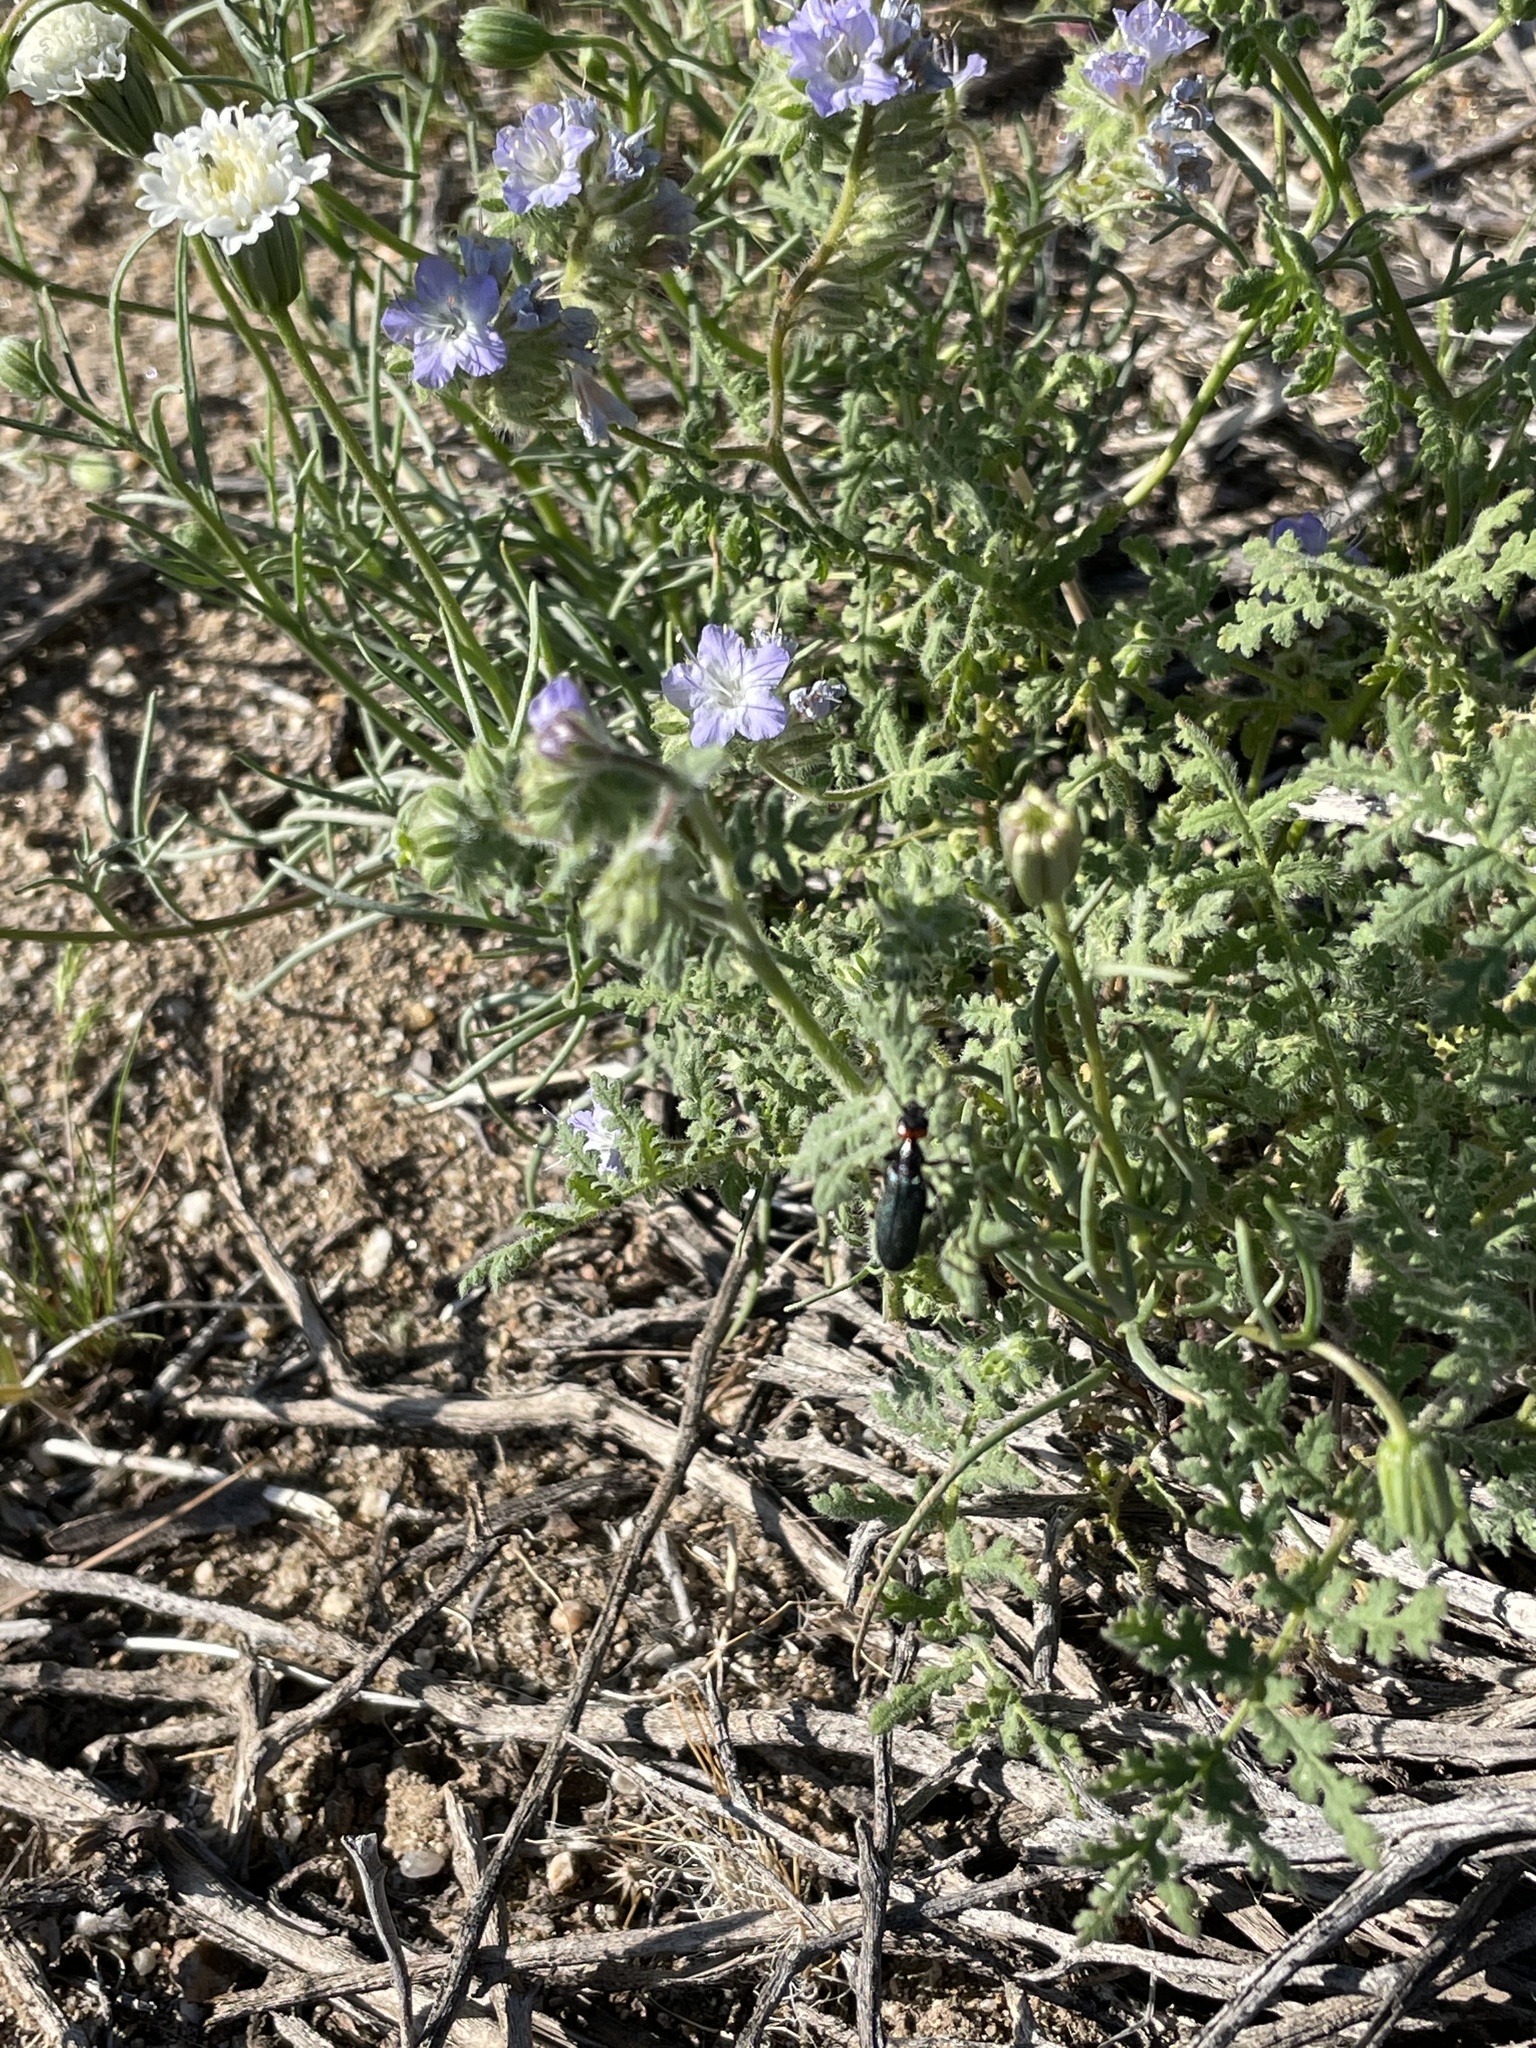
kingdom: Plantae
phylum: Tracheophyta
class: Magnoliopsida
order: Boraginales
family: Hydrophyllaceae
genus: Phacelia
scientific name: Phacelia distans
